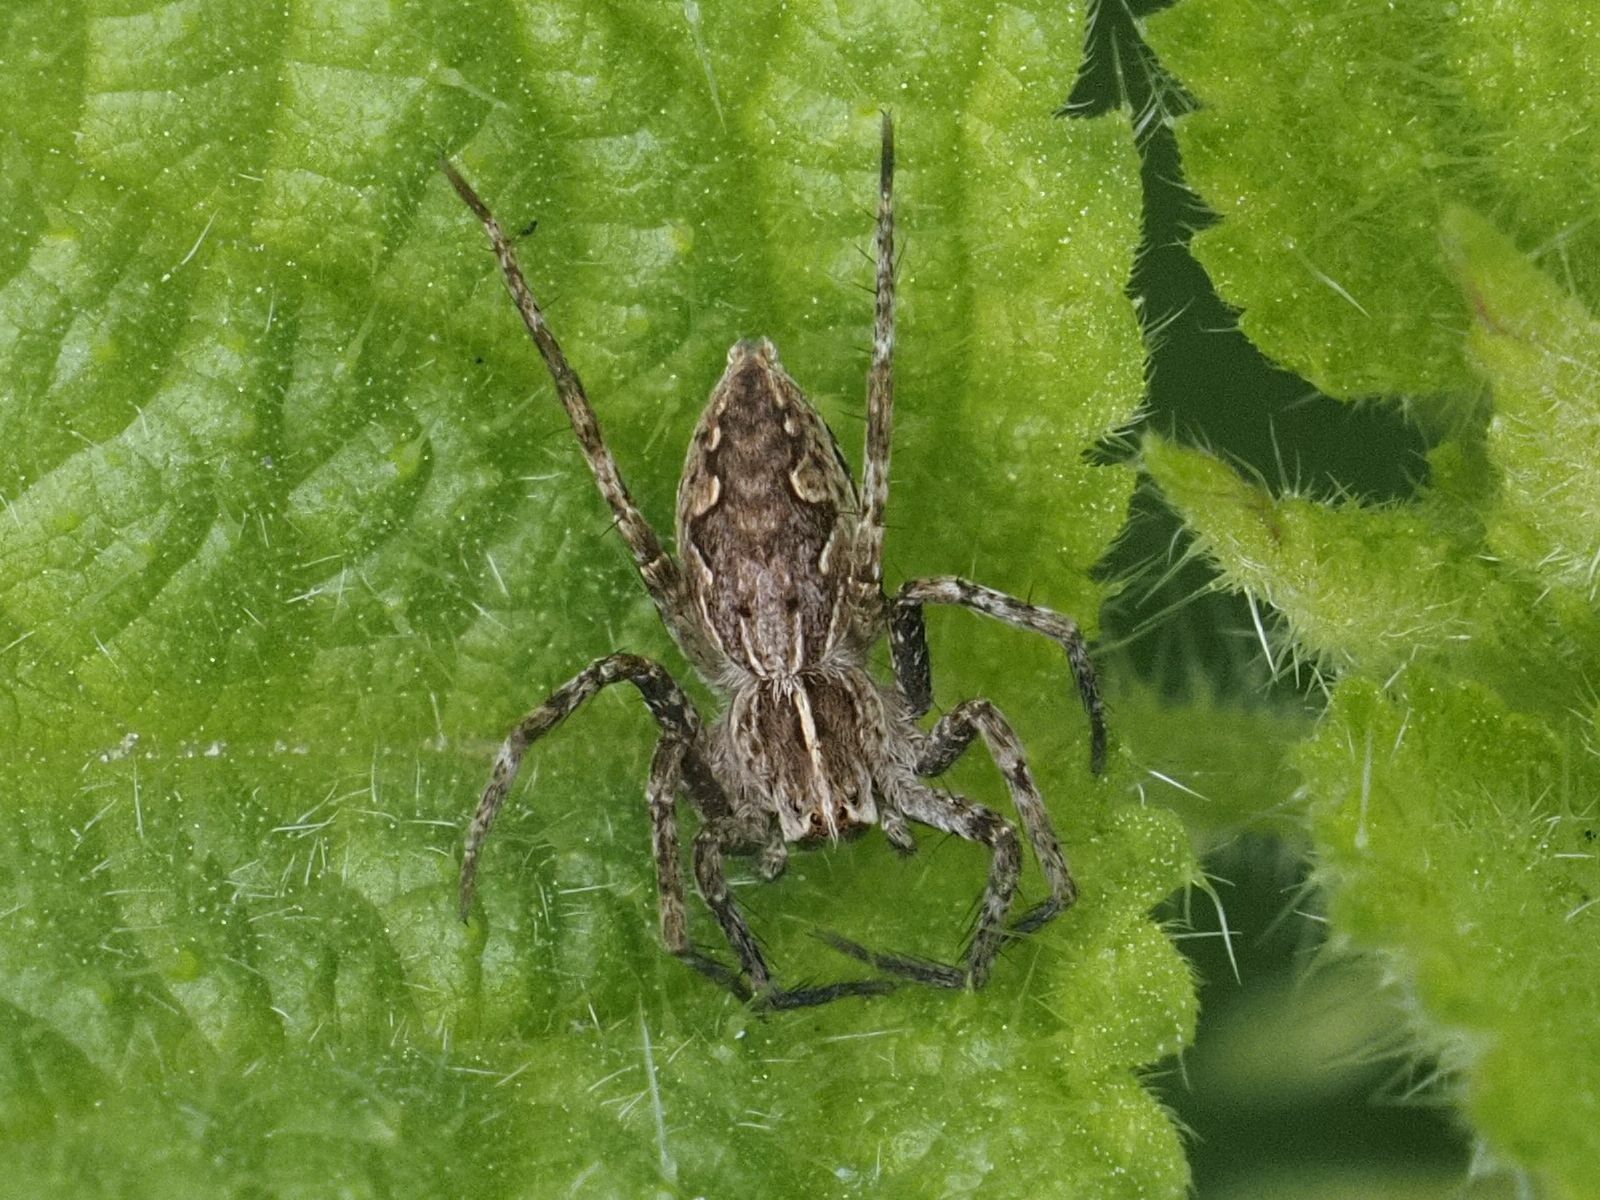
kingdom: Animalia
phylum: Arthropoda
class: Arachnida
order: Araneae
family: Pisauridae
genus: Pisaura
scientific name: Pisaura mirabilis
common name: Tent spider
